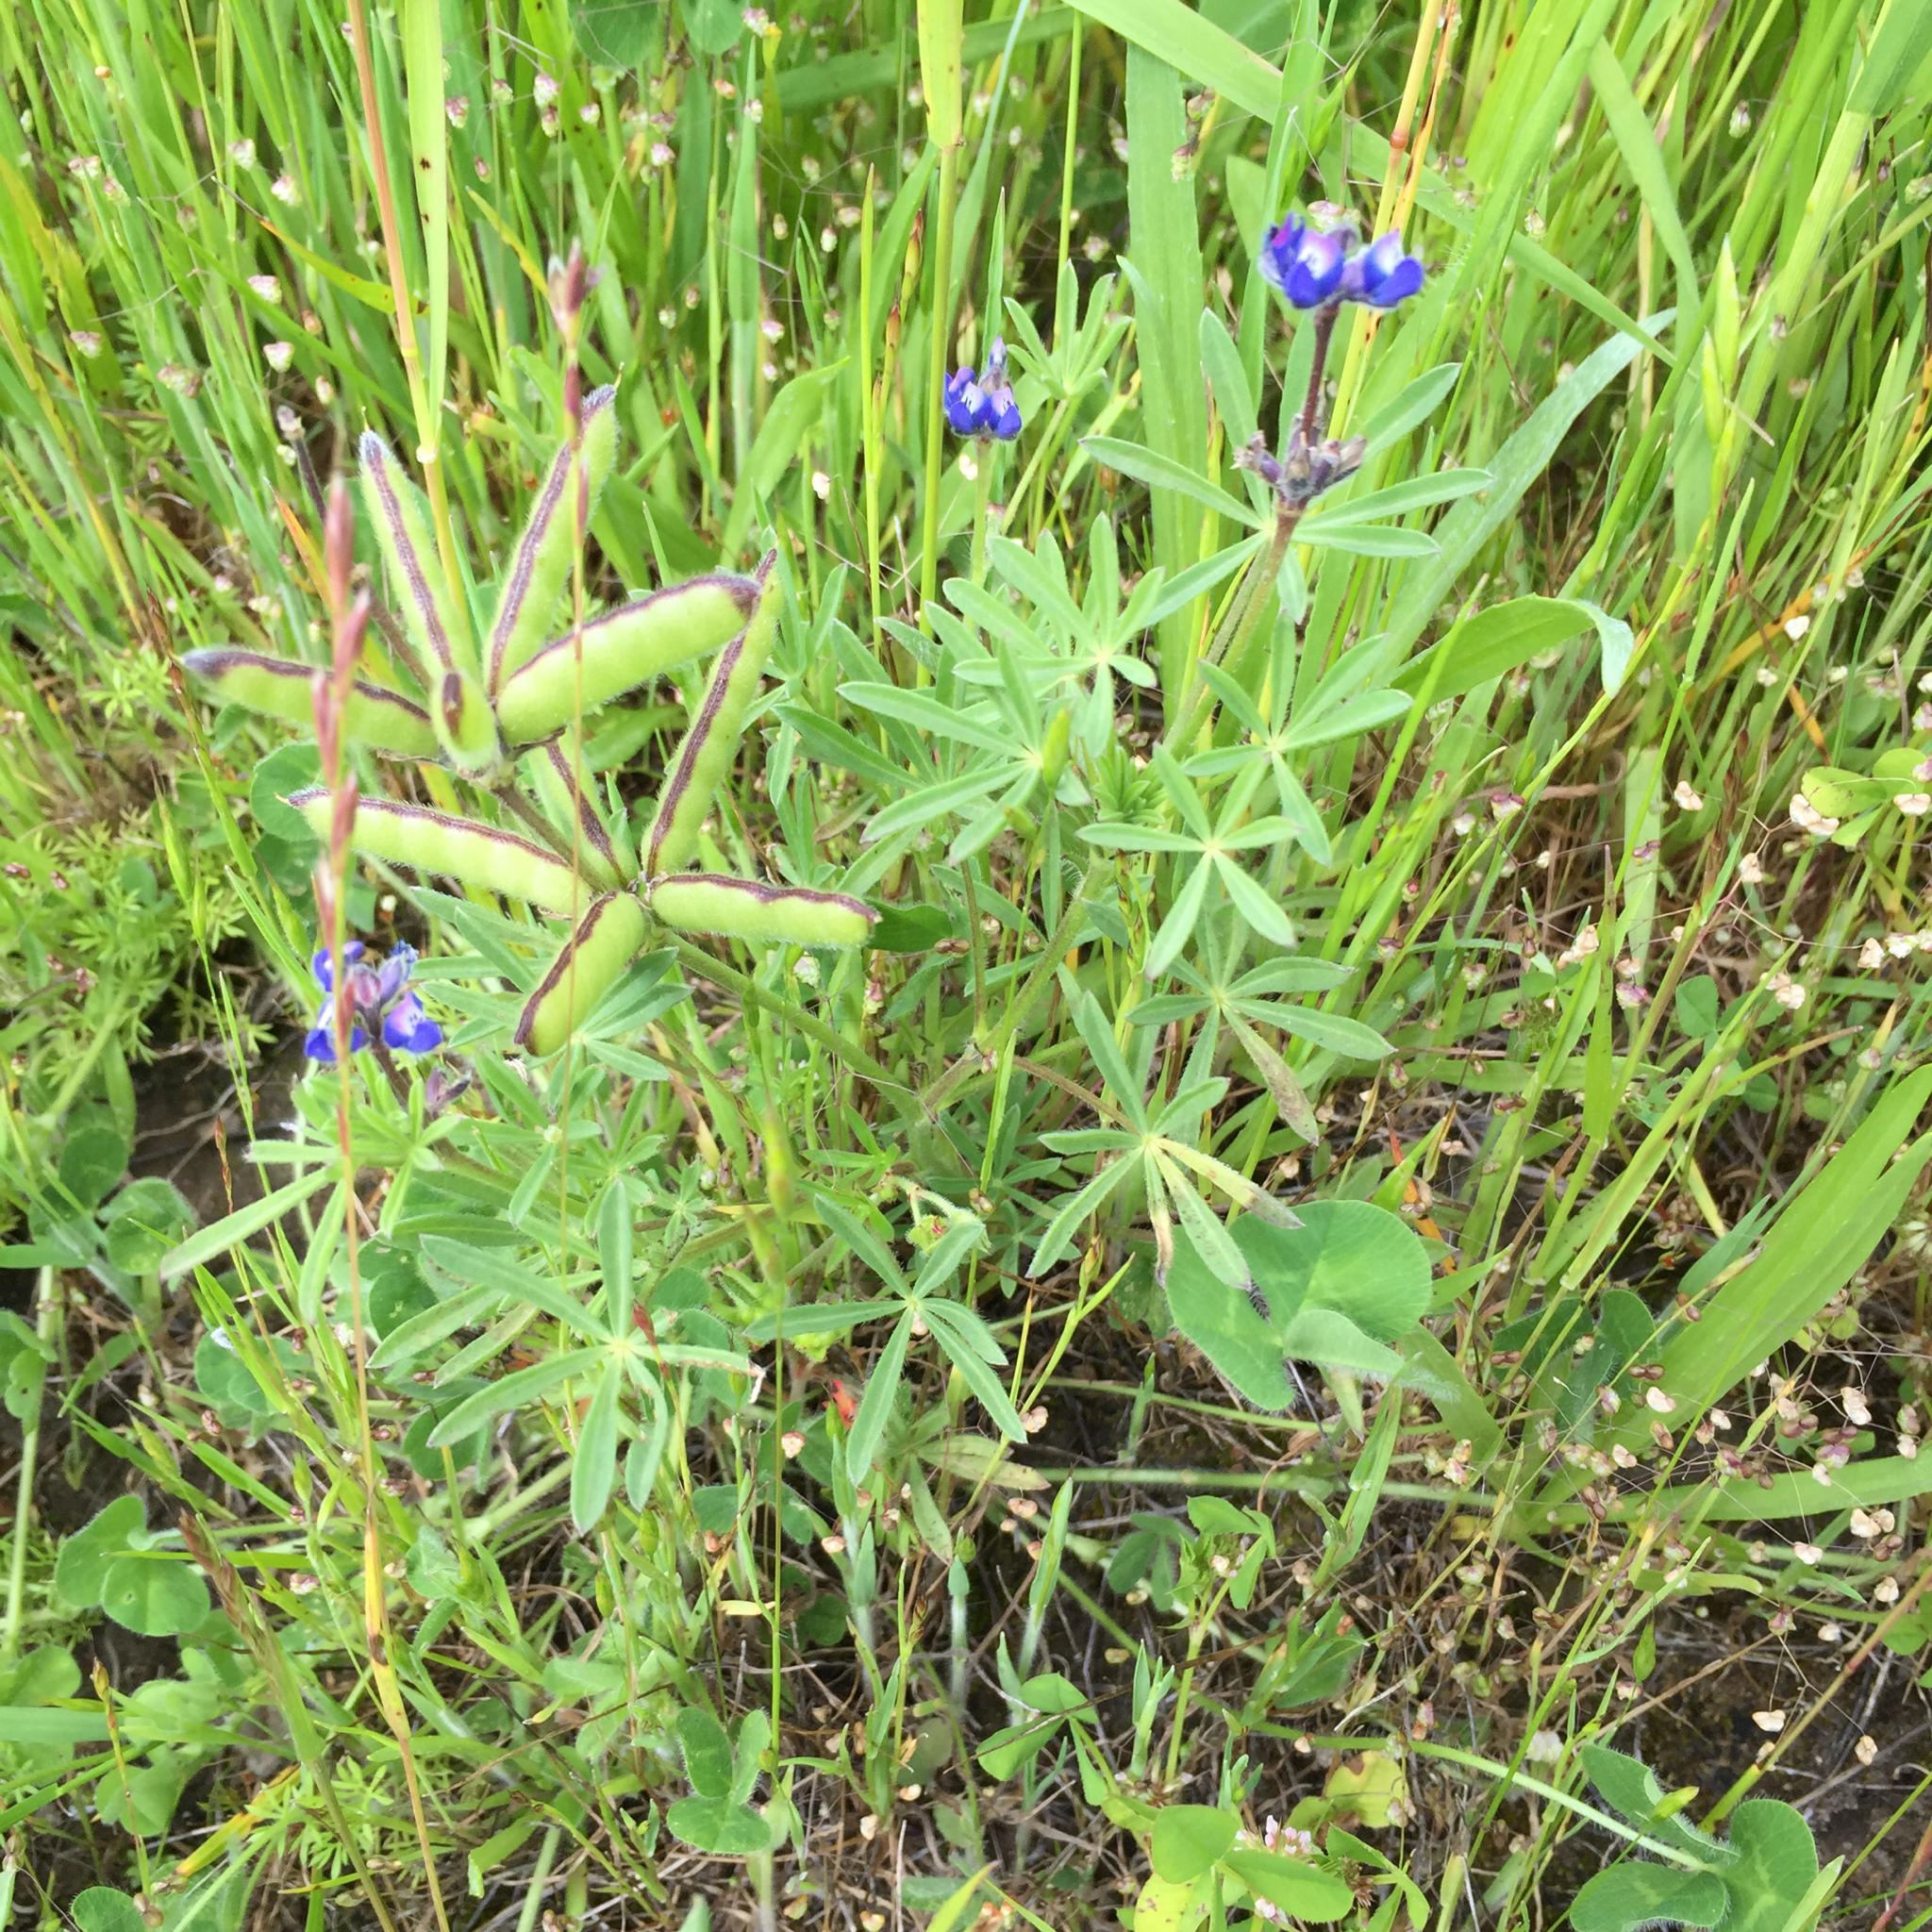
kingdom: Plantae
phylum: Tracheophyta
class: Magnoliopsida
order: Fabales
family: Fabaceae
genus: Lupinus
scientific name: Lupinus bicolor
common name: Miniature lupine
